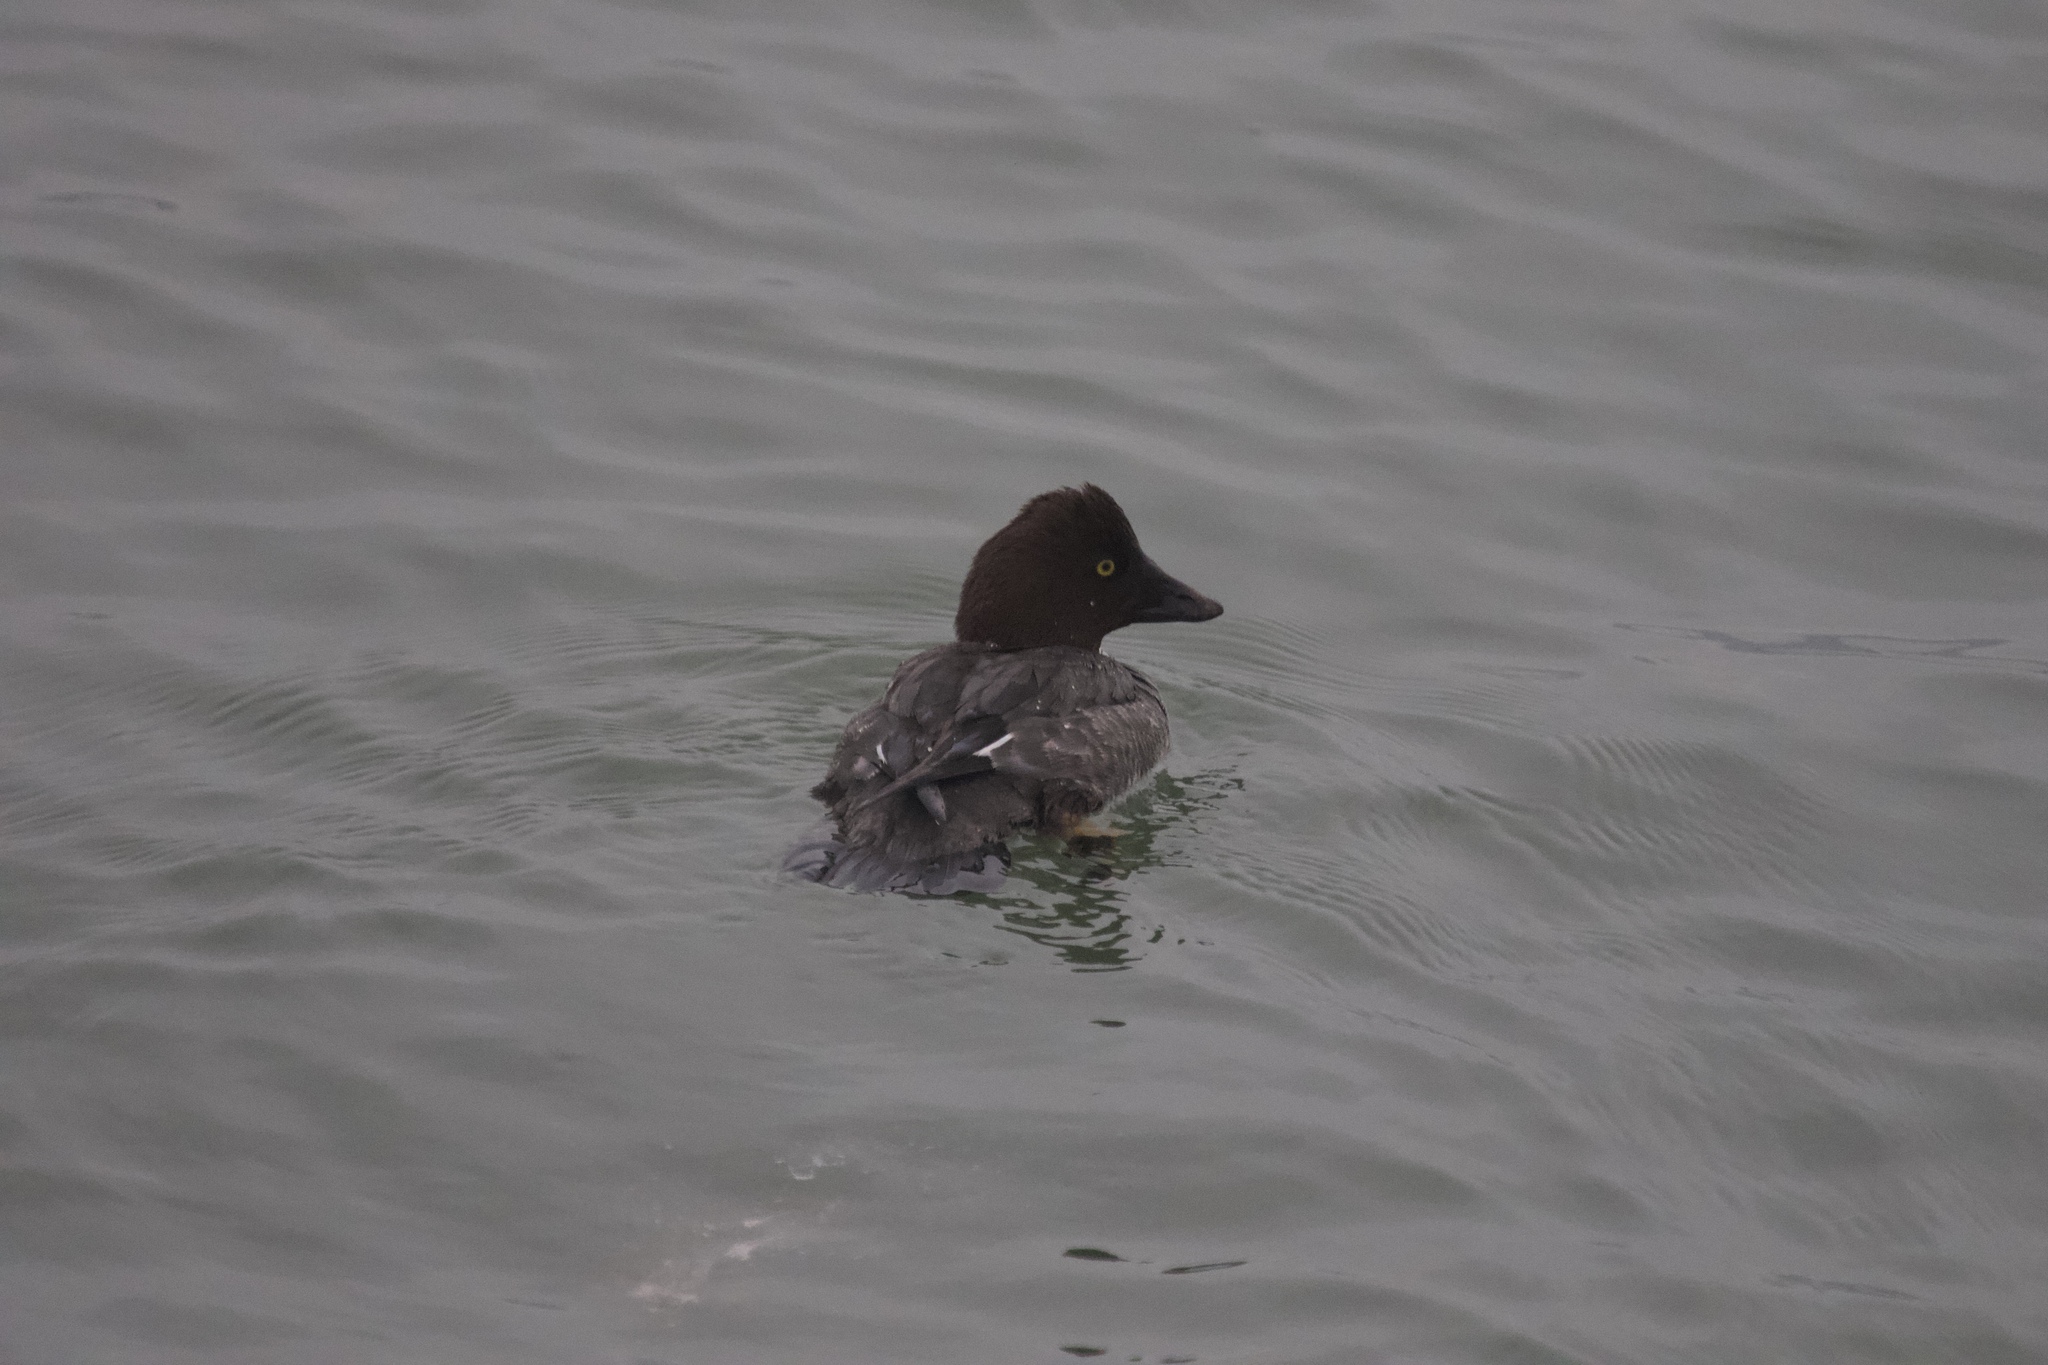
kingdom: Animalia
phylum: Chordata
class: Aves
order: Anseriformes
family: Anatidae
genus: Bucephala
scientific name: Bucephala clangula
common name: Common goldeneye
